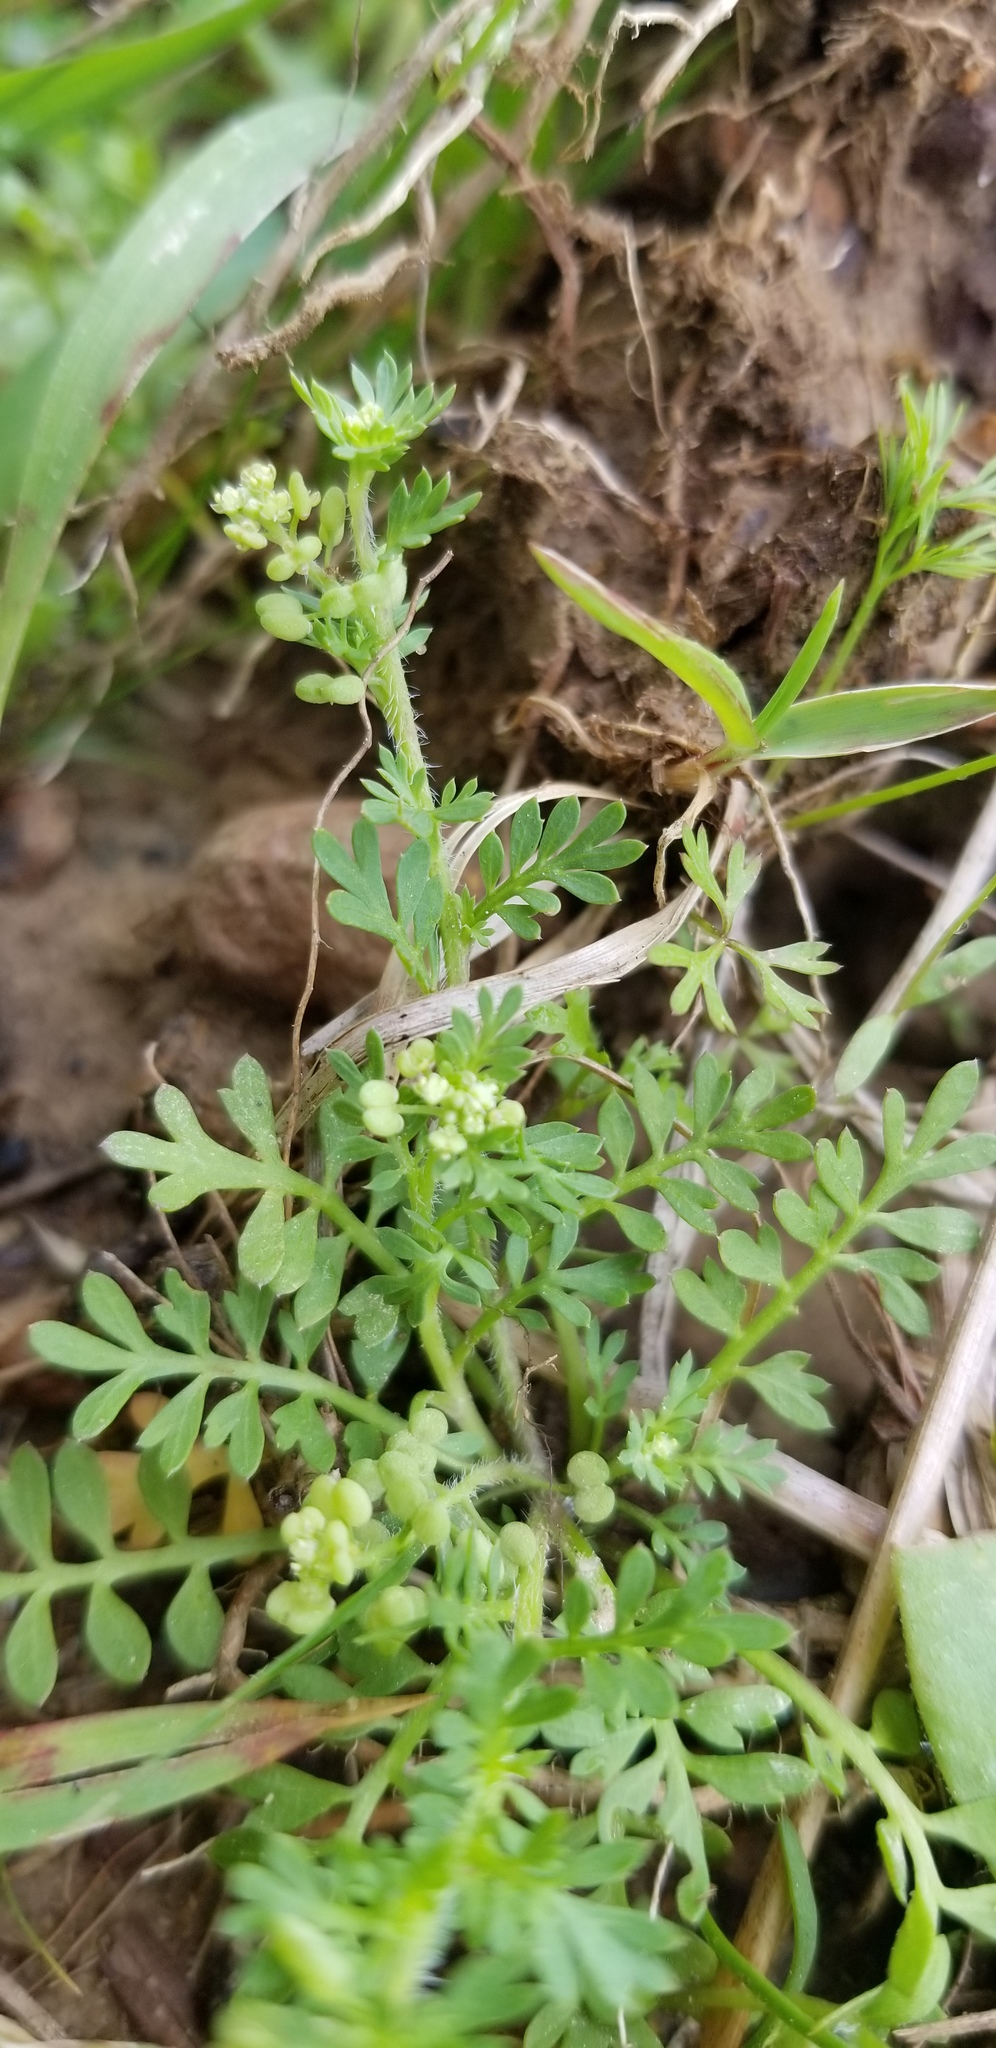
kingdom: Plantae
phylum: Tracheophyta
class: Magnoliopsida
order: Brassicales
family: Brassicaceae
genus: Lepidium
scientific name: Lepidium didymum
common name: Lesser swinecress
